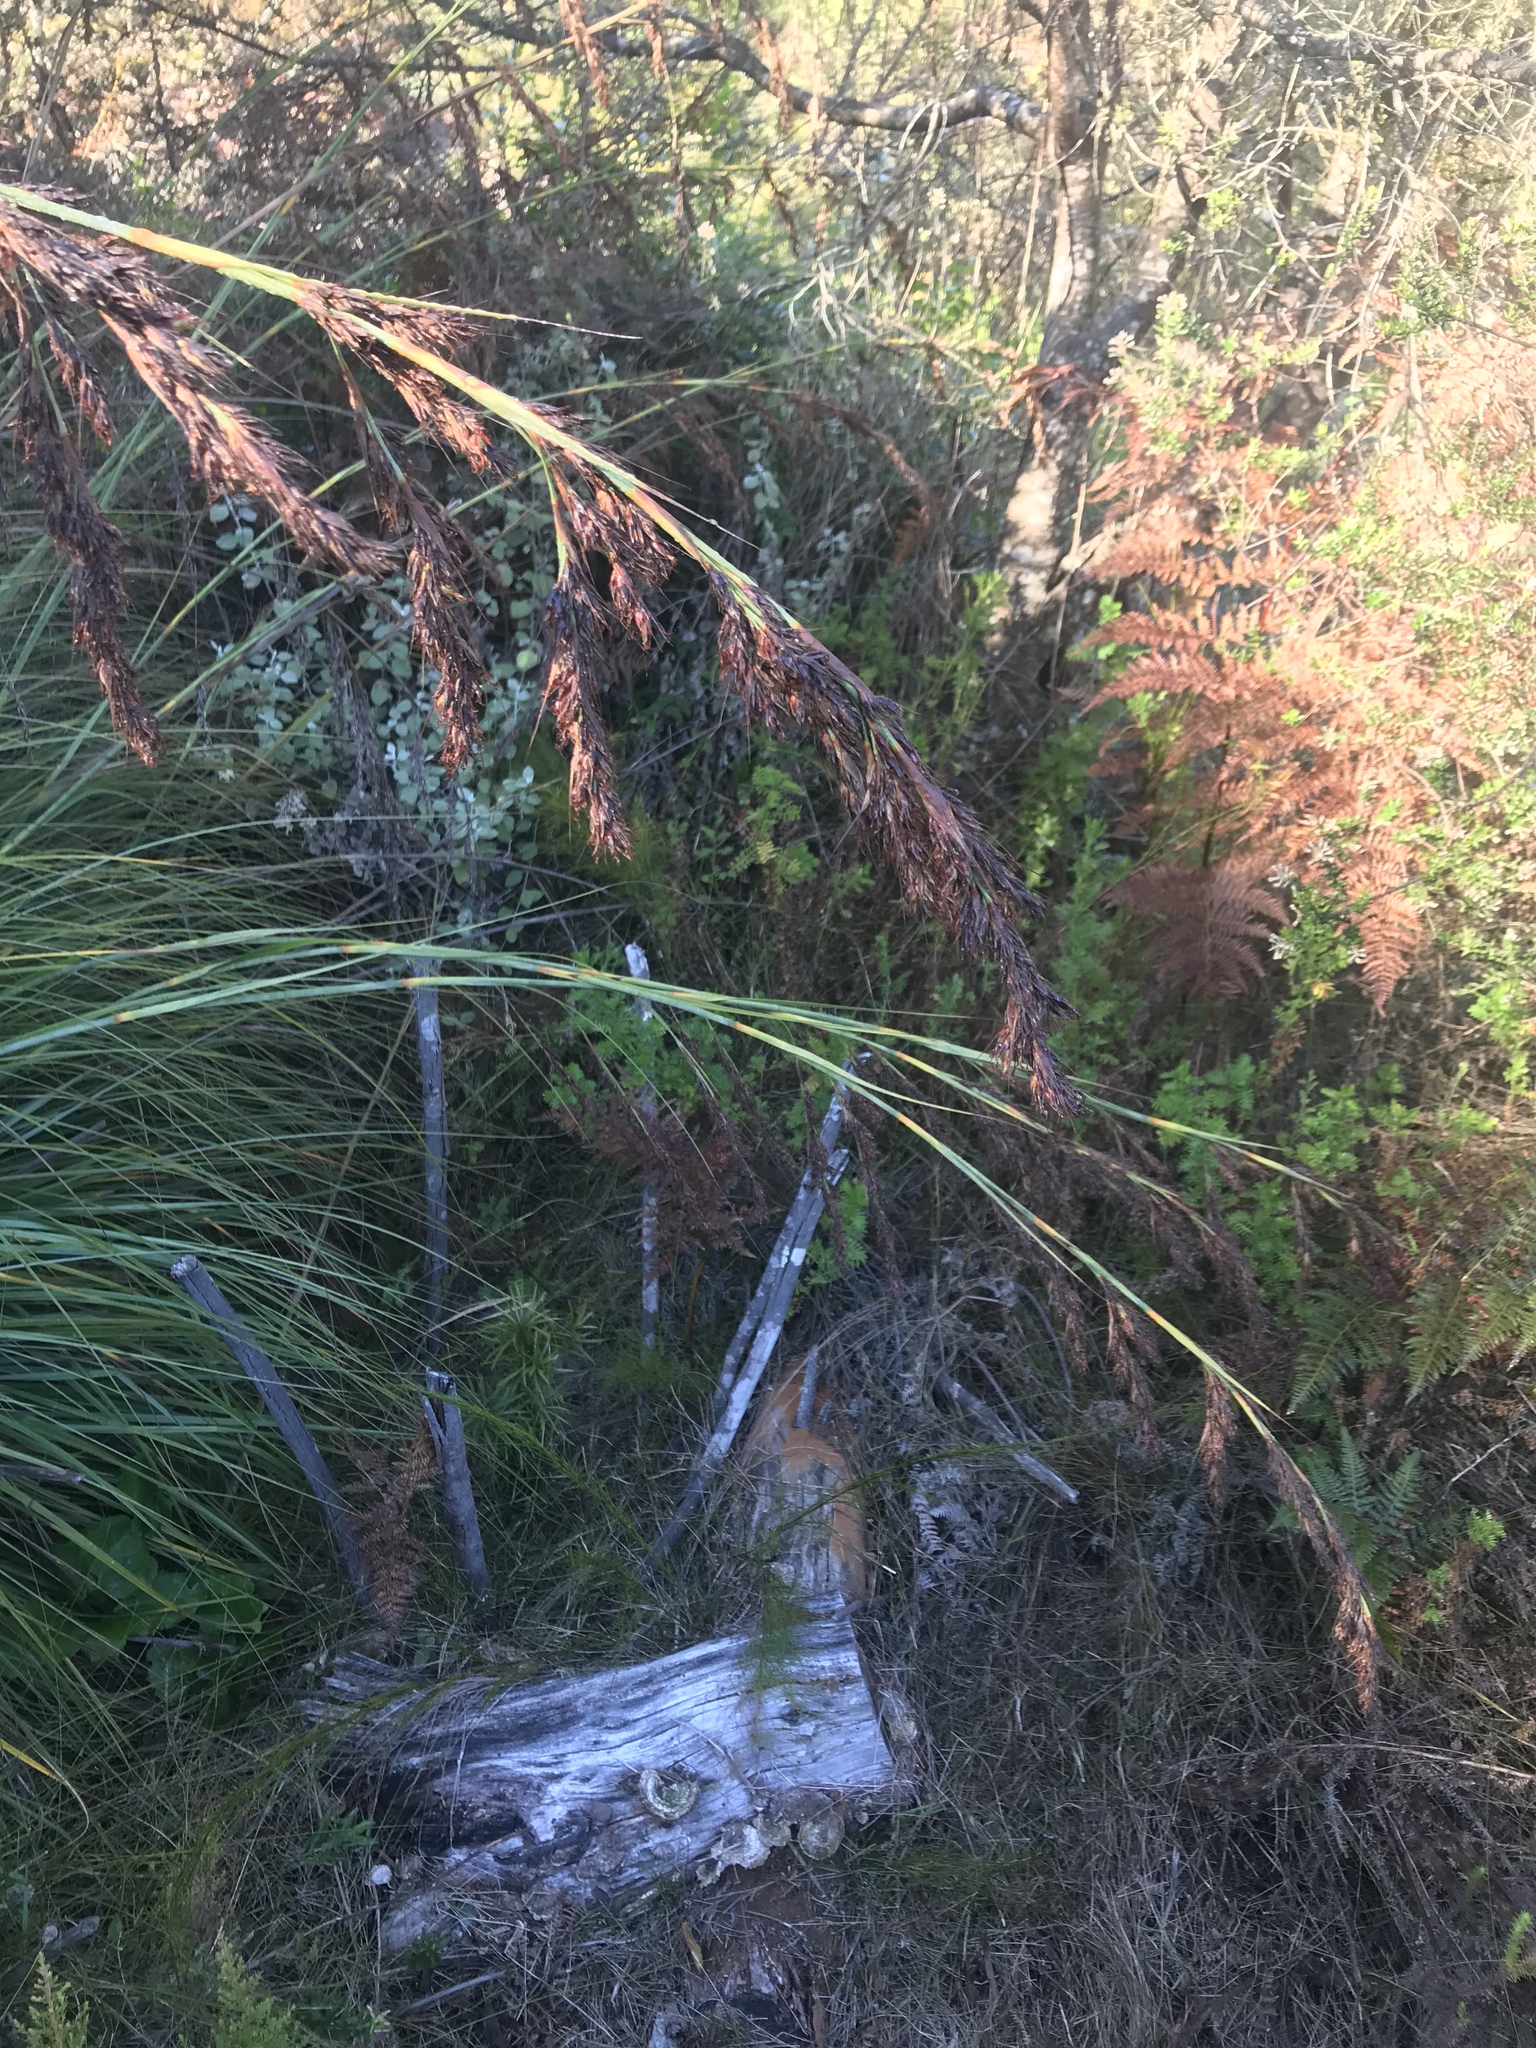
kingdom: Plantae
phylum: Tracheophyta
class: Liliopsida
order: Poales
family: Cyperaceae
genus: Tetraria
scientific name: Tetraria secans
